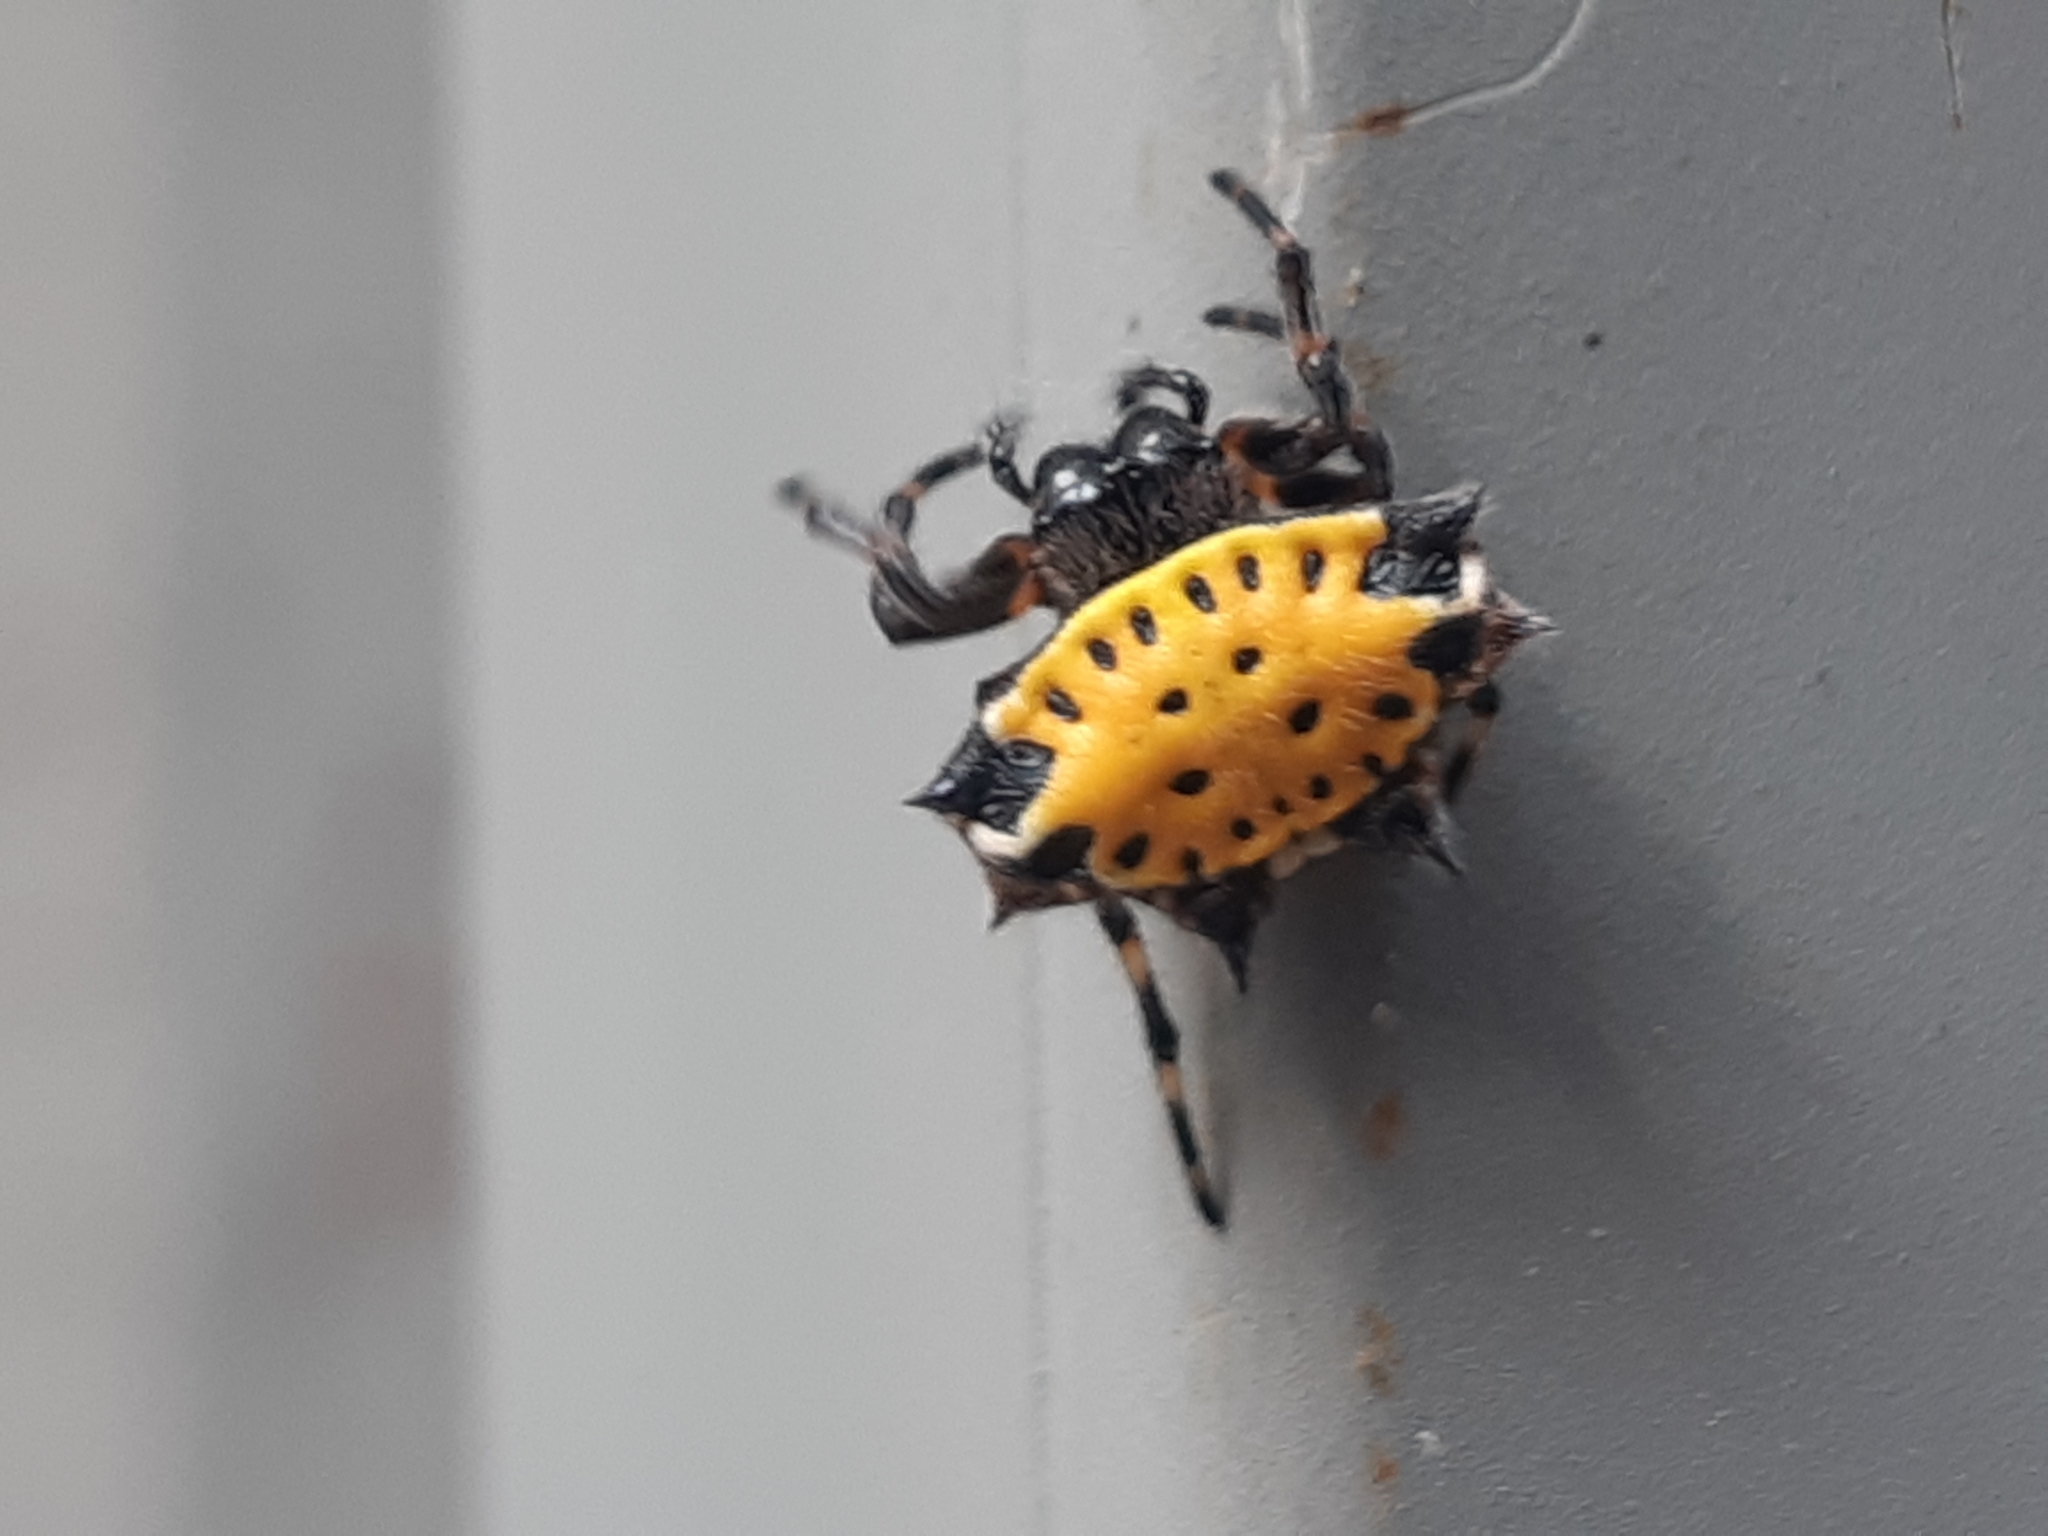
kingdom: Animalia
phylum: Arthropoda
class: Arachnida
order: Araneae
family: Araneidae
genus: Gasteracantha
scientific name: Gasteracantha cancriformis
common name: Orb weavers
